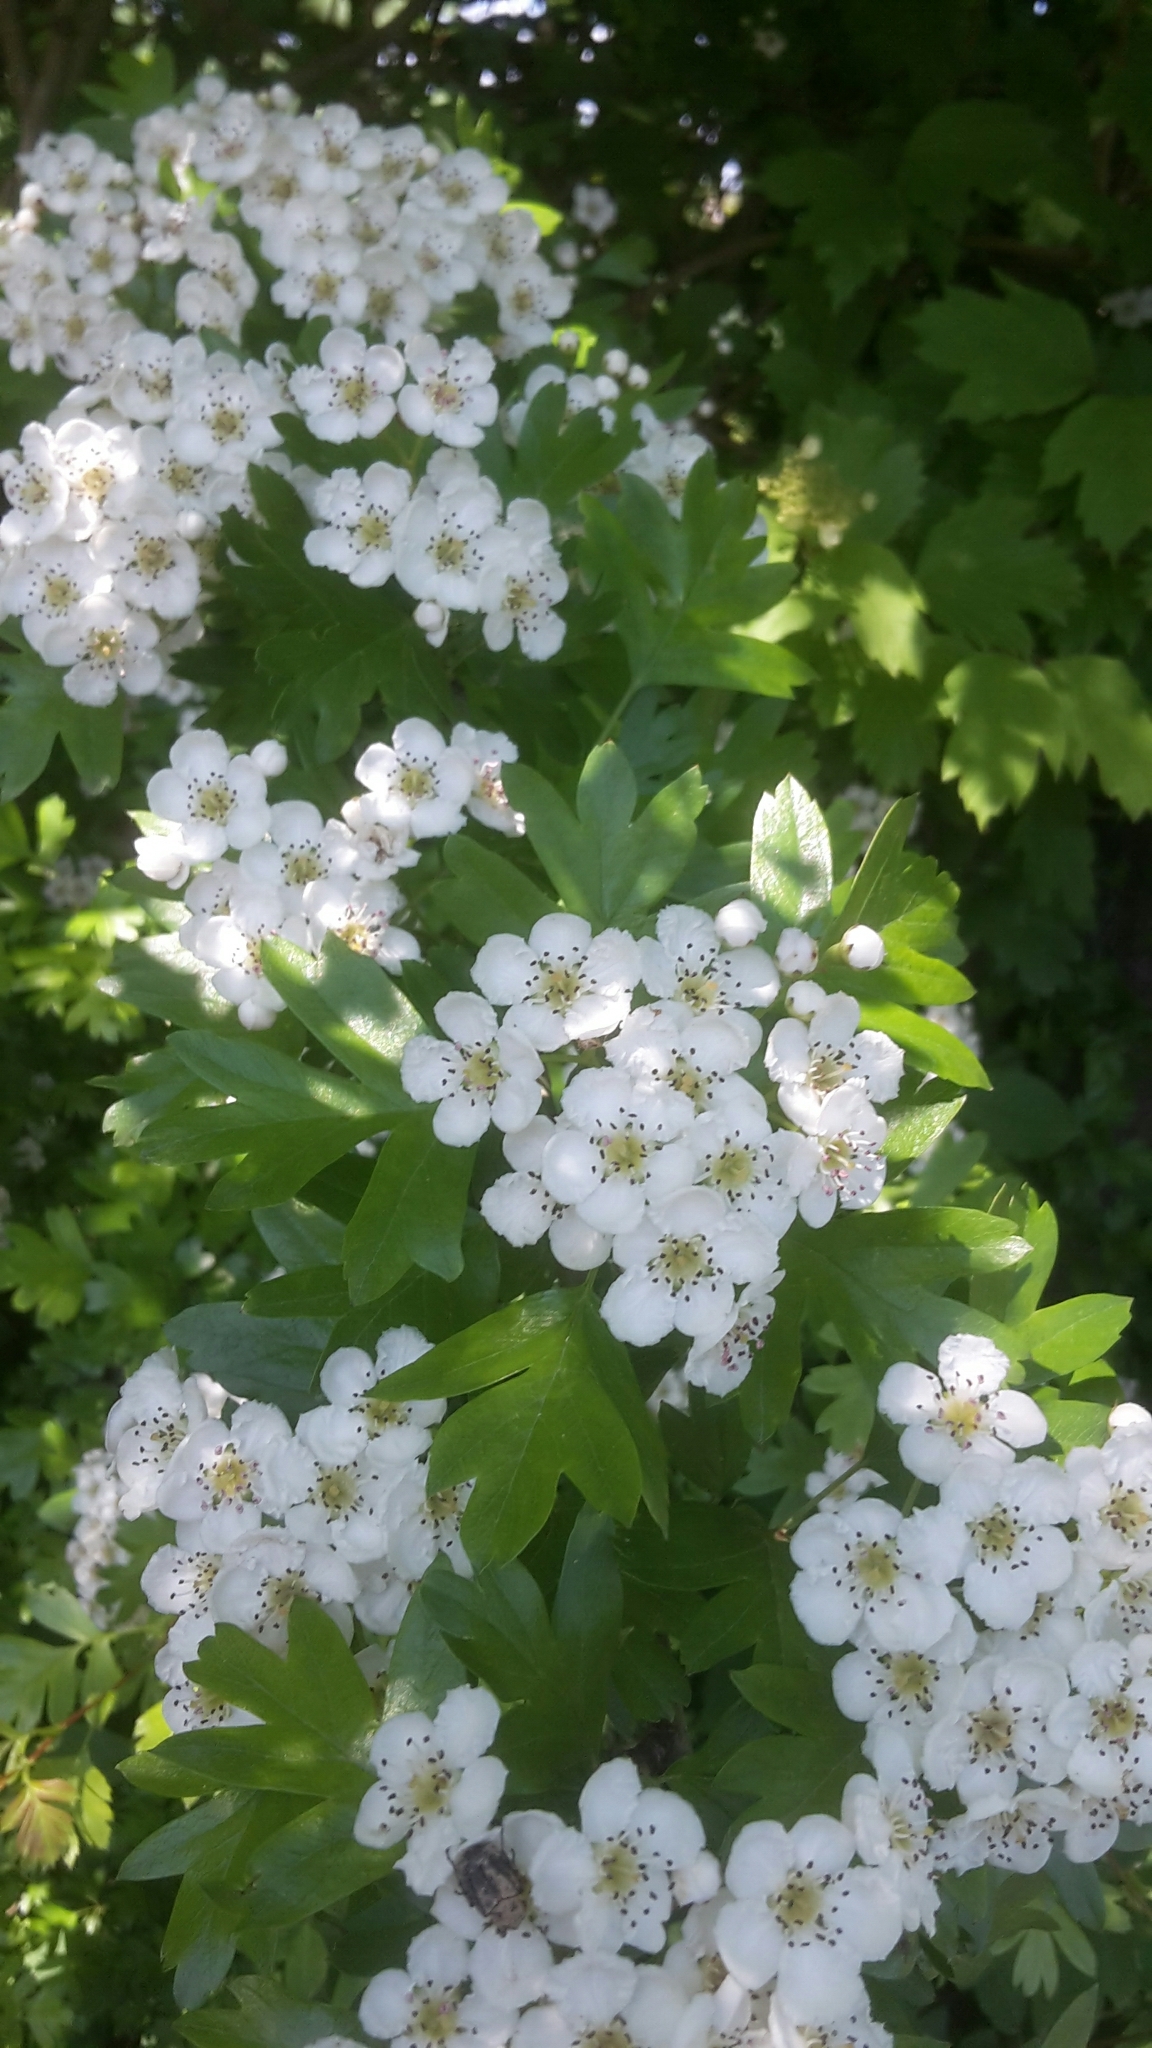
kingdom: Plantae
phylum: Tracheophyta
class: Magnoliopsida
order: Rosales
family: Rosaceae
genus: Crataegus
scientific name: Crataegus monogyna
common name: Hawthorn
